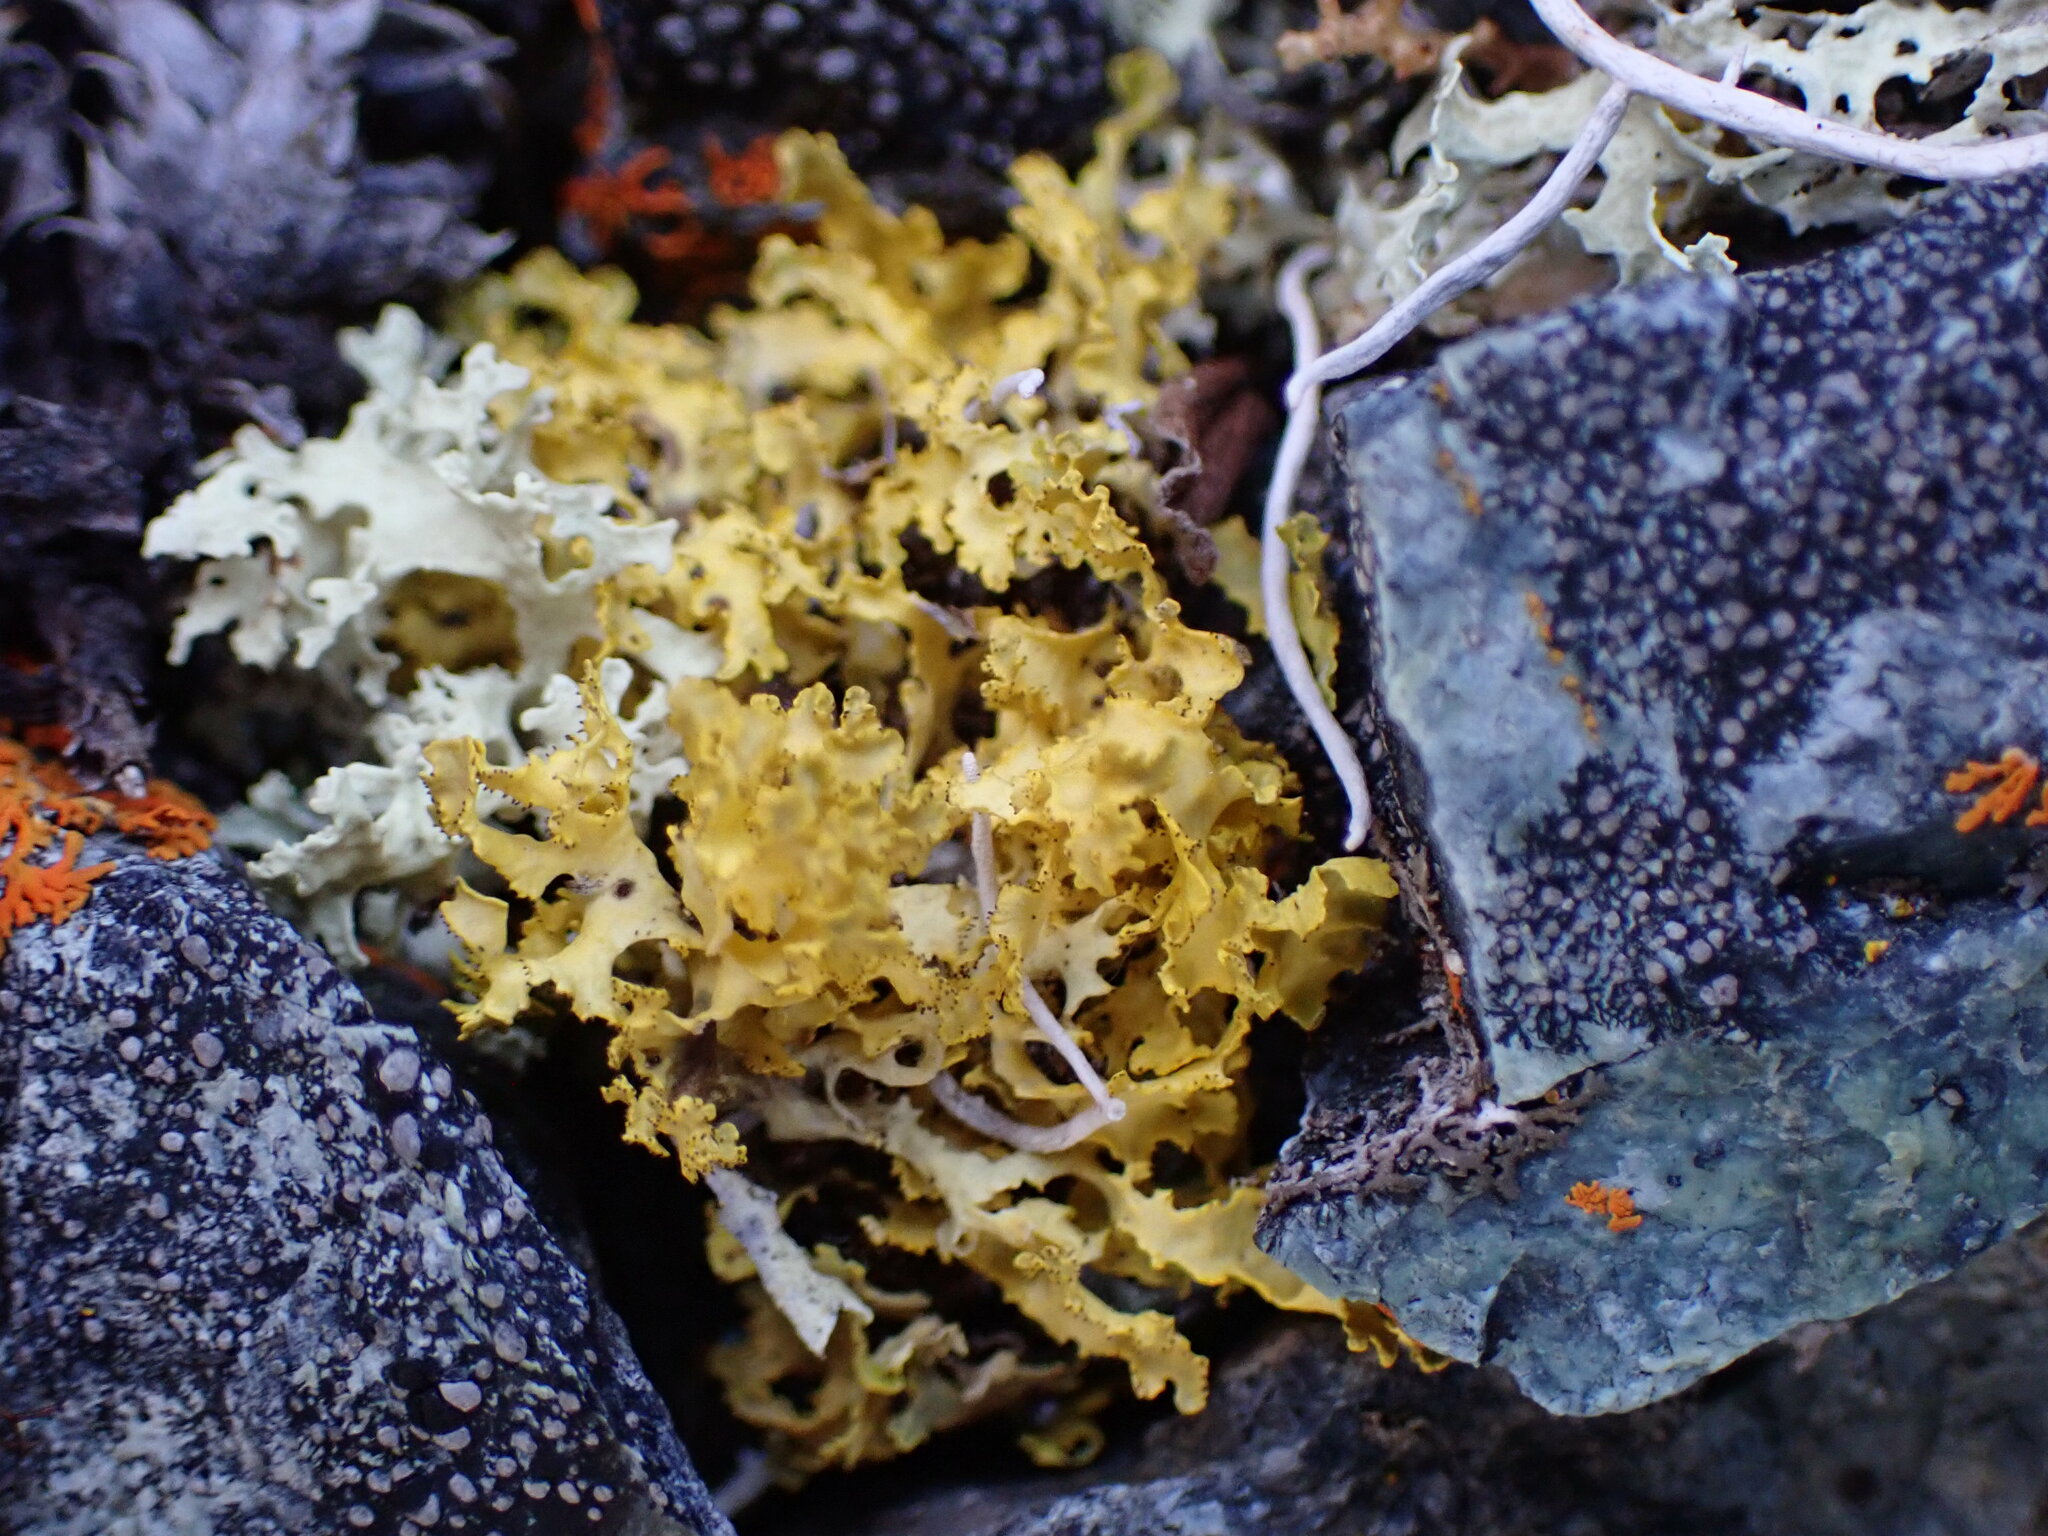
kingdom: Fungi
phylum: Ascomycota
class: Lecanoromycetes
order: Lecanorales
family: Parmeliaceae
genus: Vulpicida
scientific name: Vulpicida juniperinus
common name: Yellow lichen
